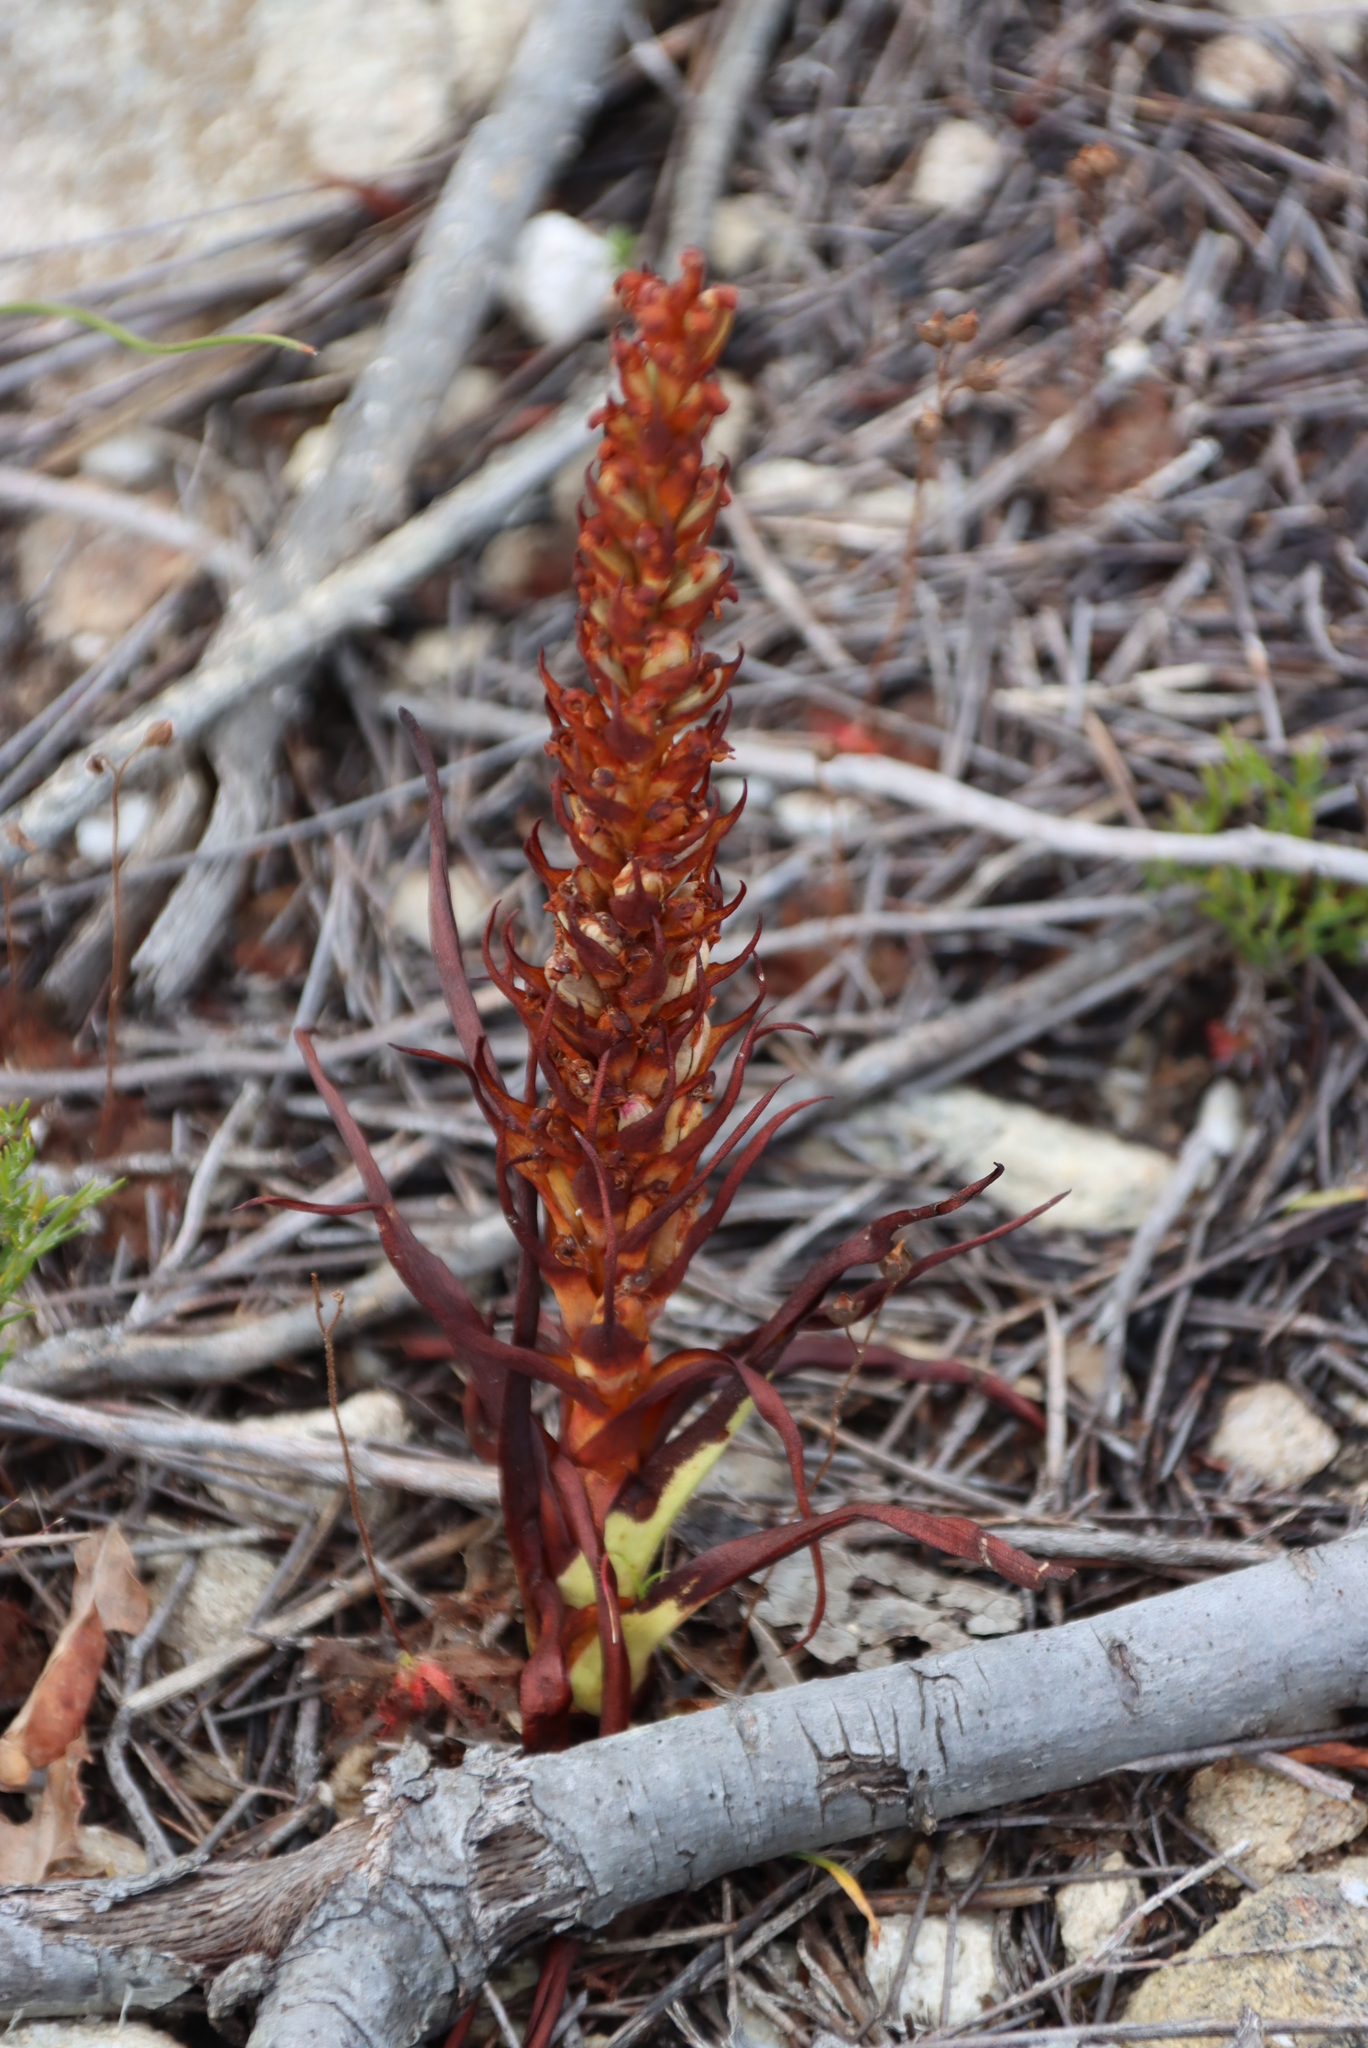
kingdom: Plantae
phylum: Tracheophyta
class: Liliopsida
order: Asparagales
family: Orchidaceae
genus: Disa
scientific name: Disa bracteata
